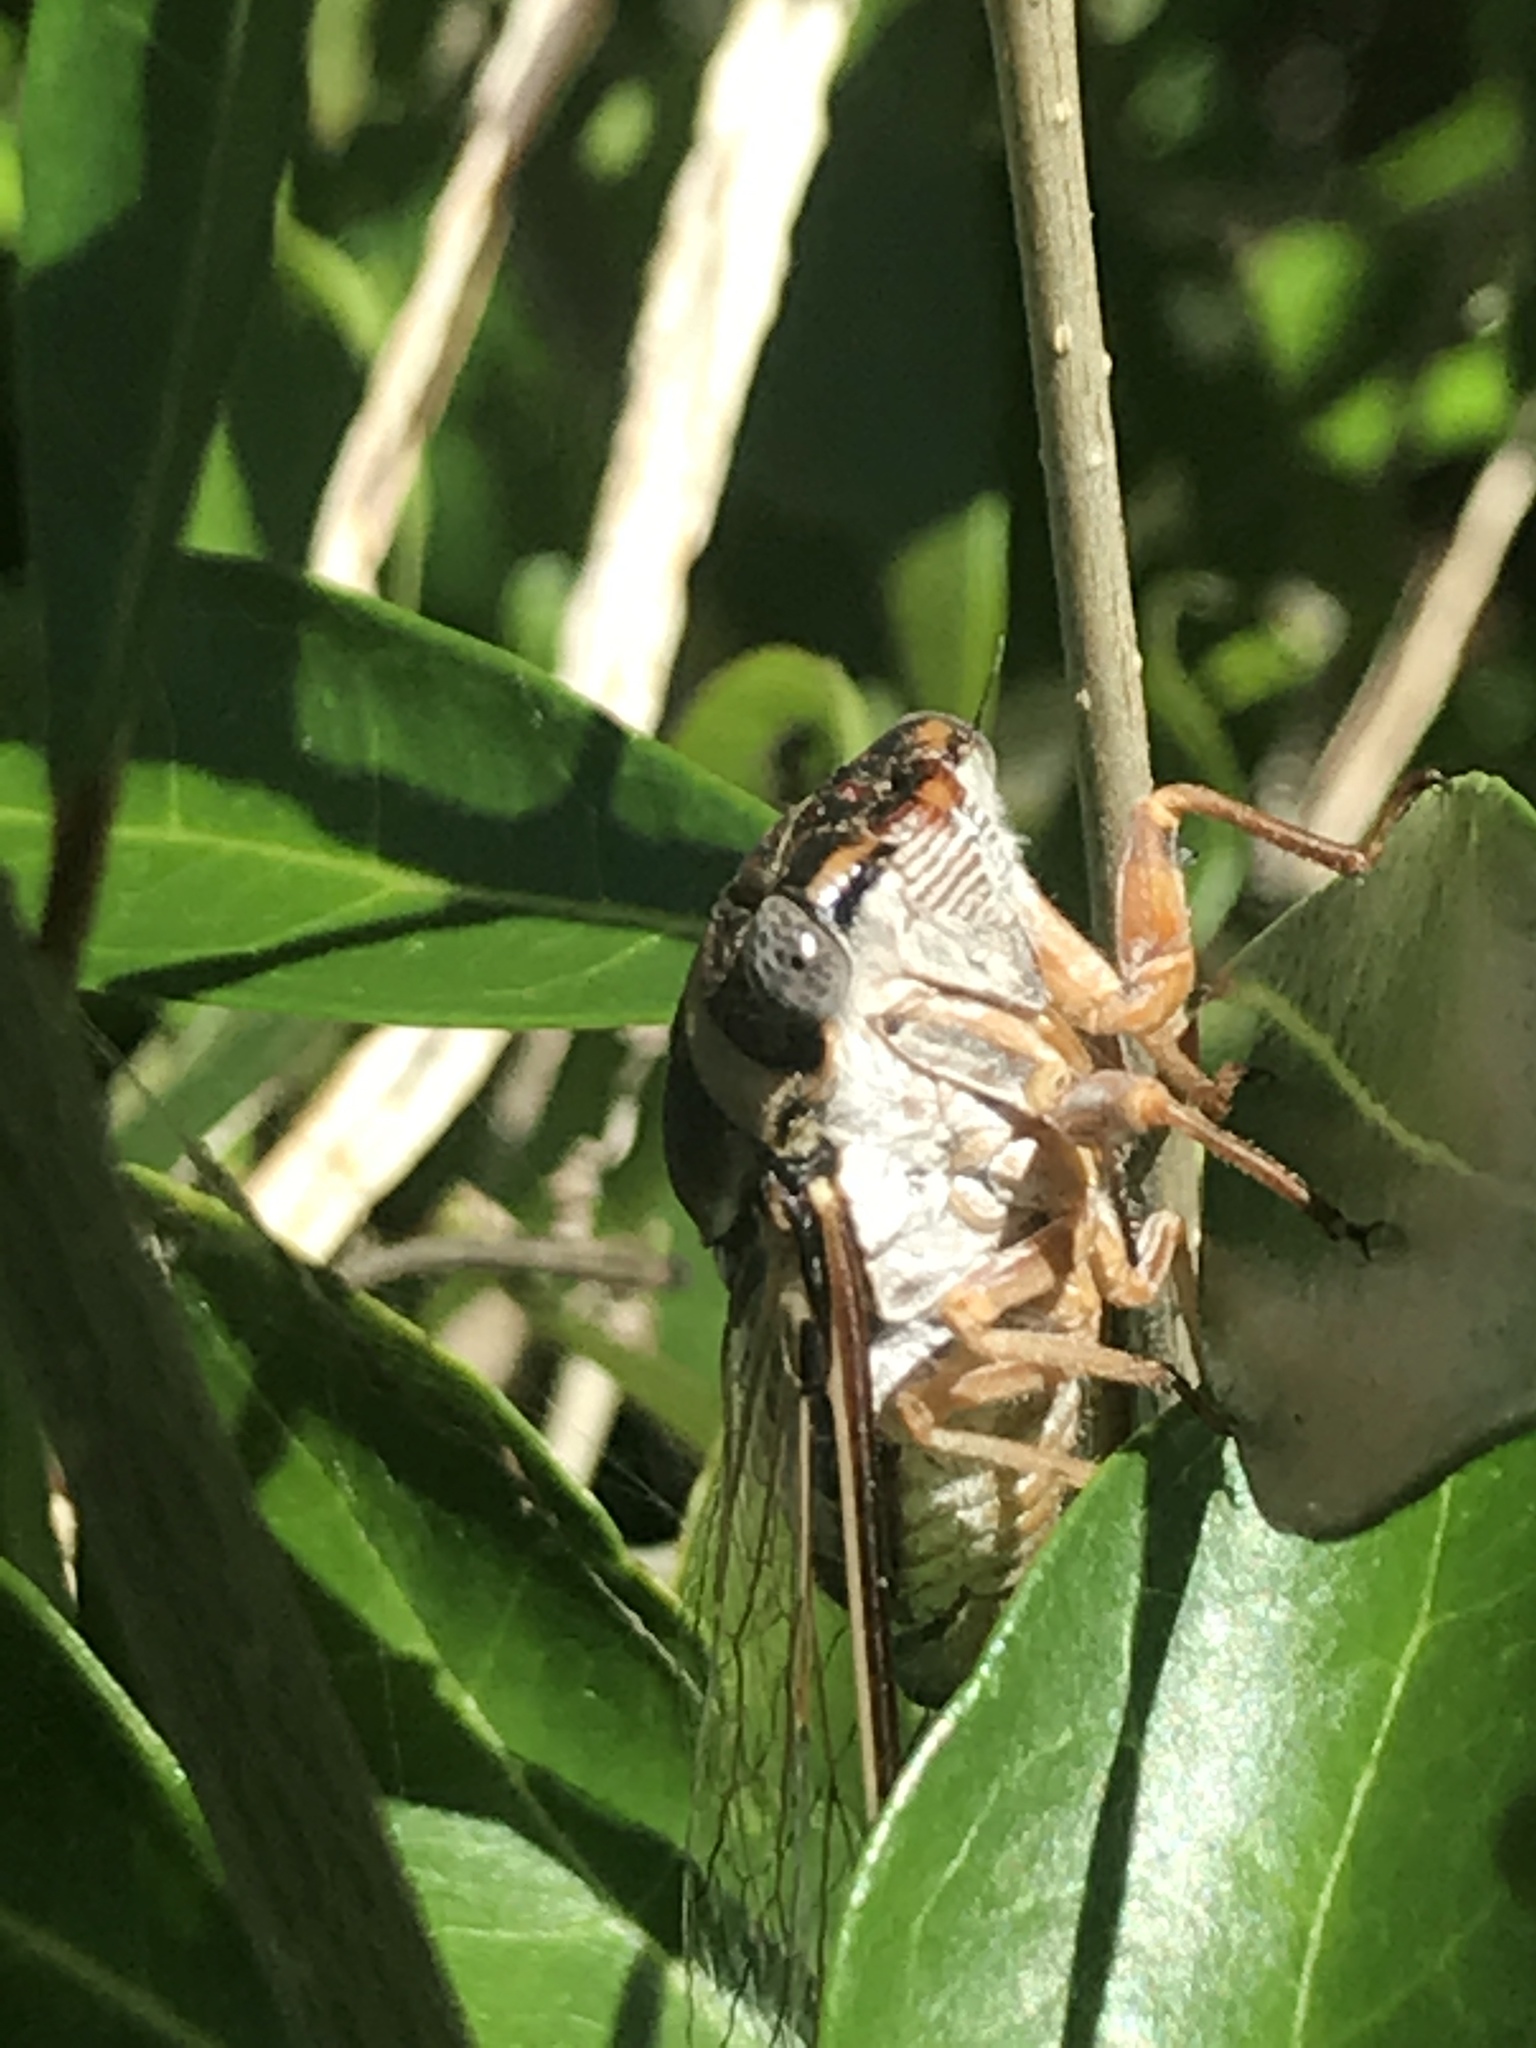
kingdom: Animalia
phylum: Arthropoda
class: Insecta
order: Hemiptera
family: Cicadidae
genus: Diceroprocta
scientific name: Diceroprocta viridifascia
